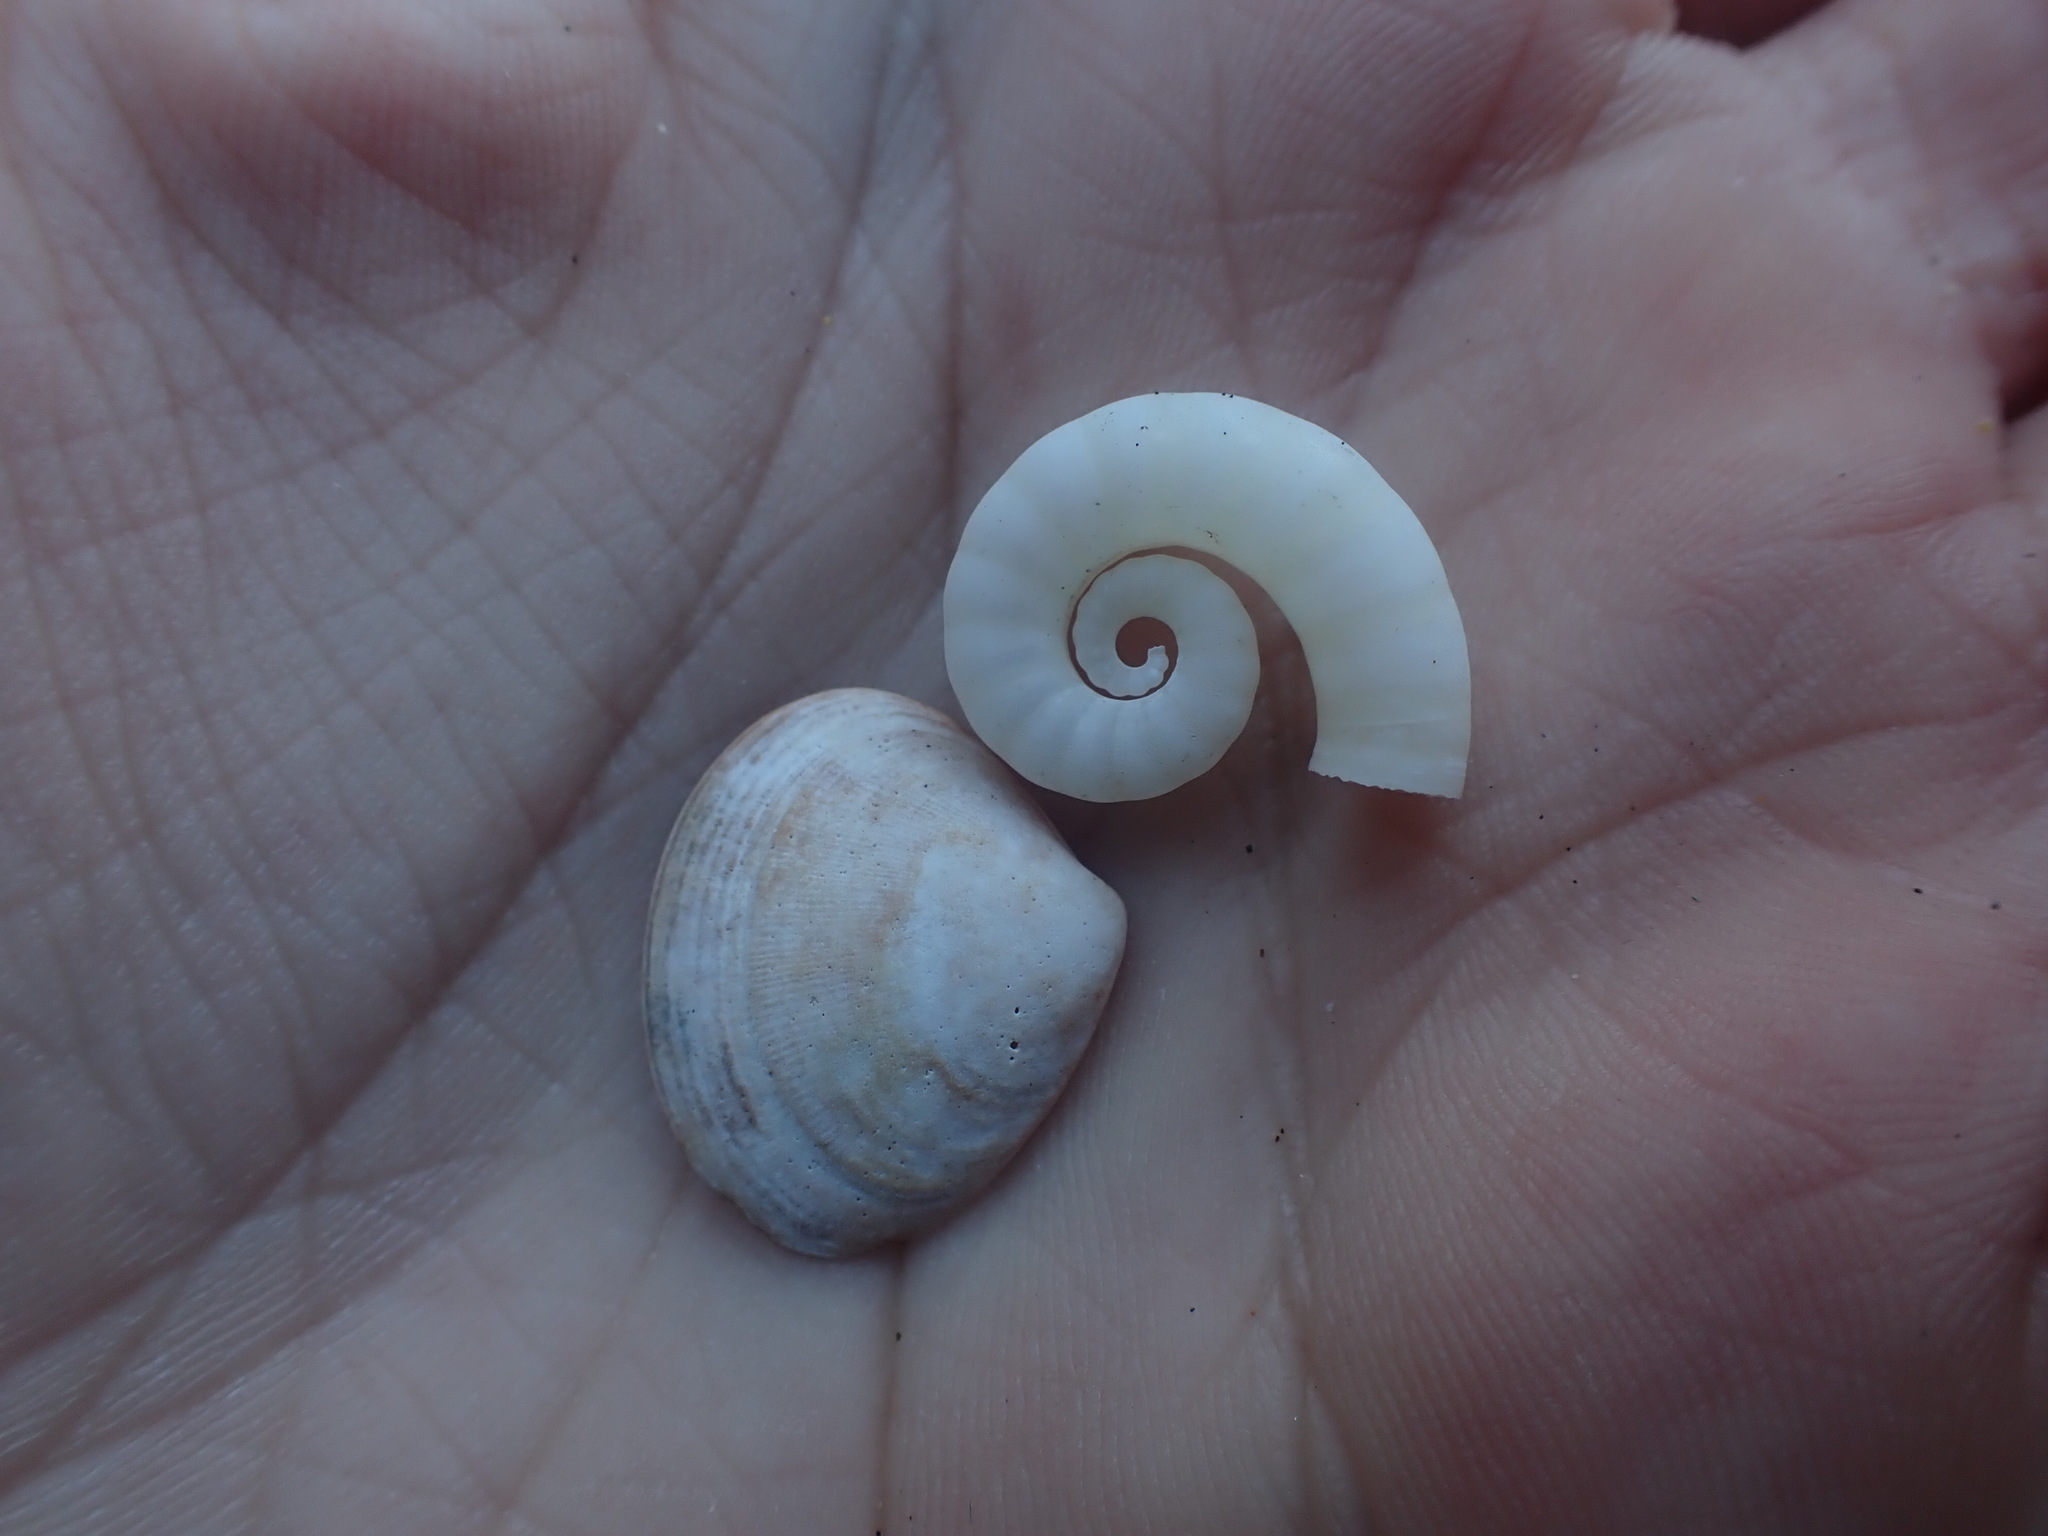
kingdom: Animalia
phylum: Mollusca
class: Cephalopoda
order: Spirulida
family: Spirulidae
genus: Spirula
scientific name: Spirula spirula
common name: Ram's horn squid
